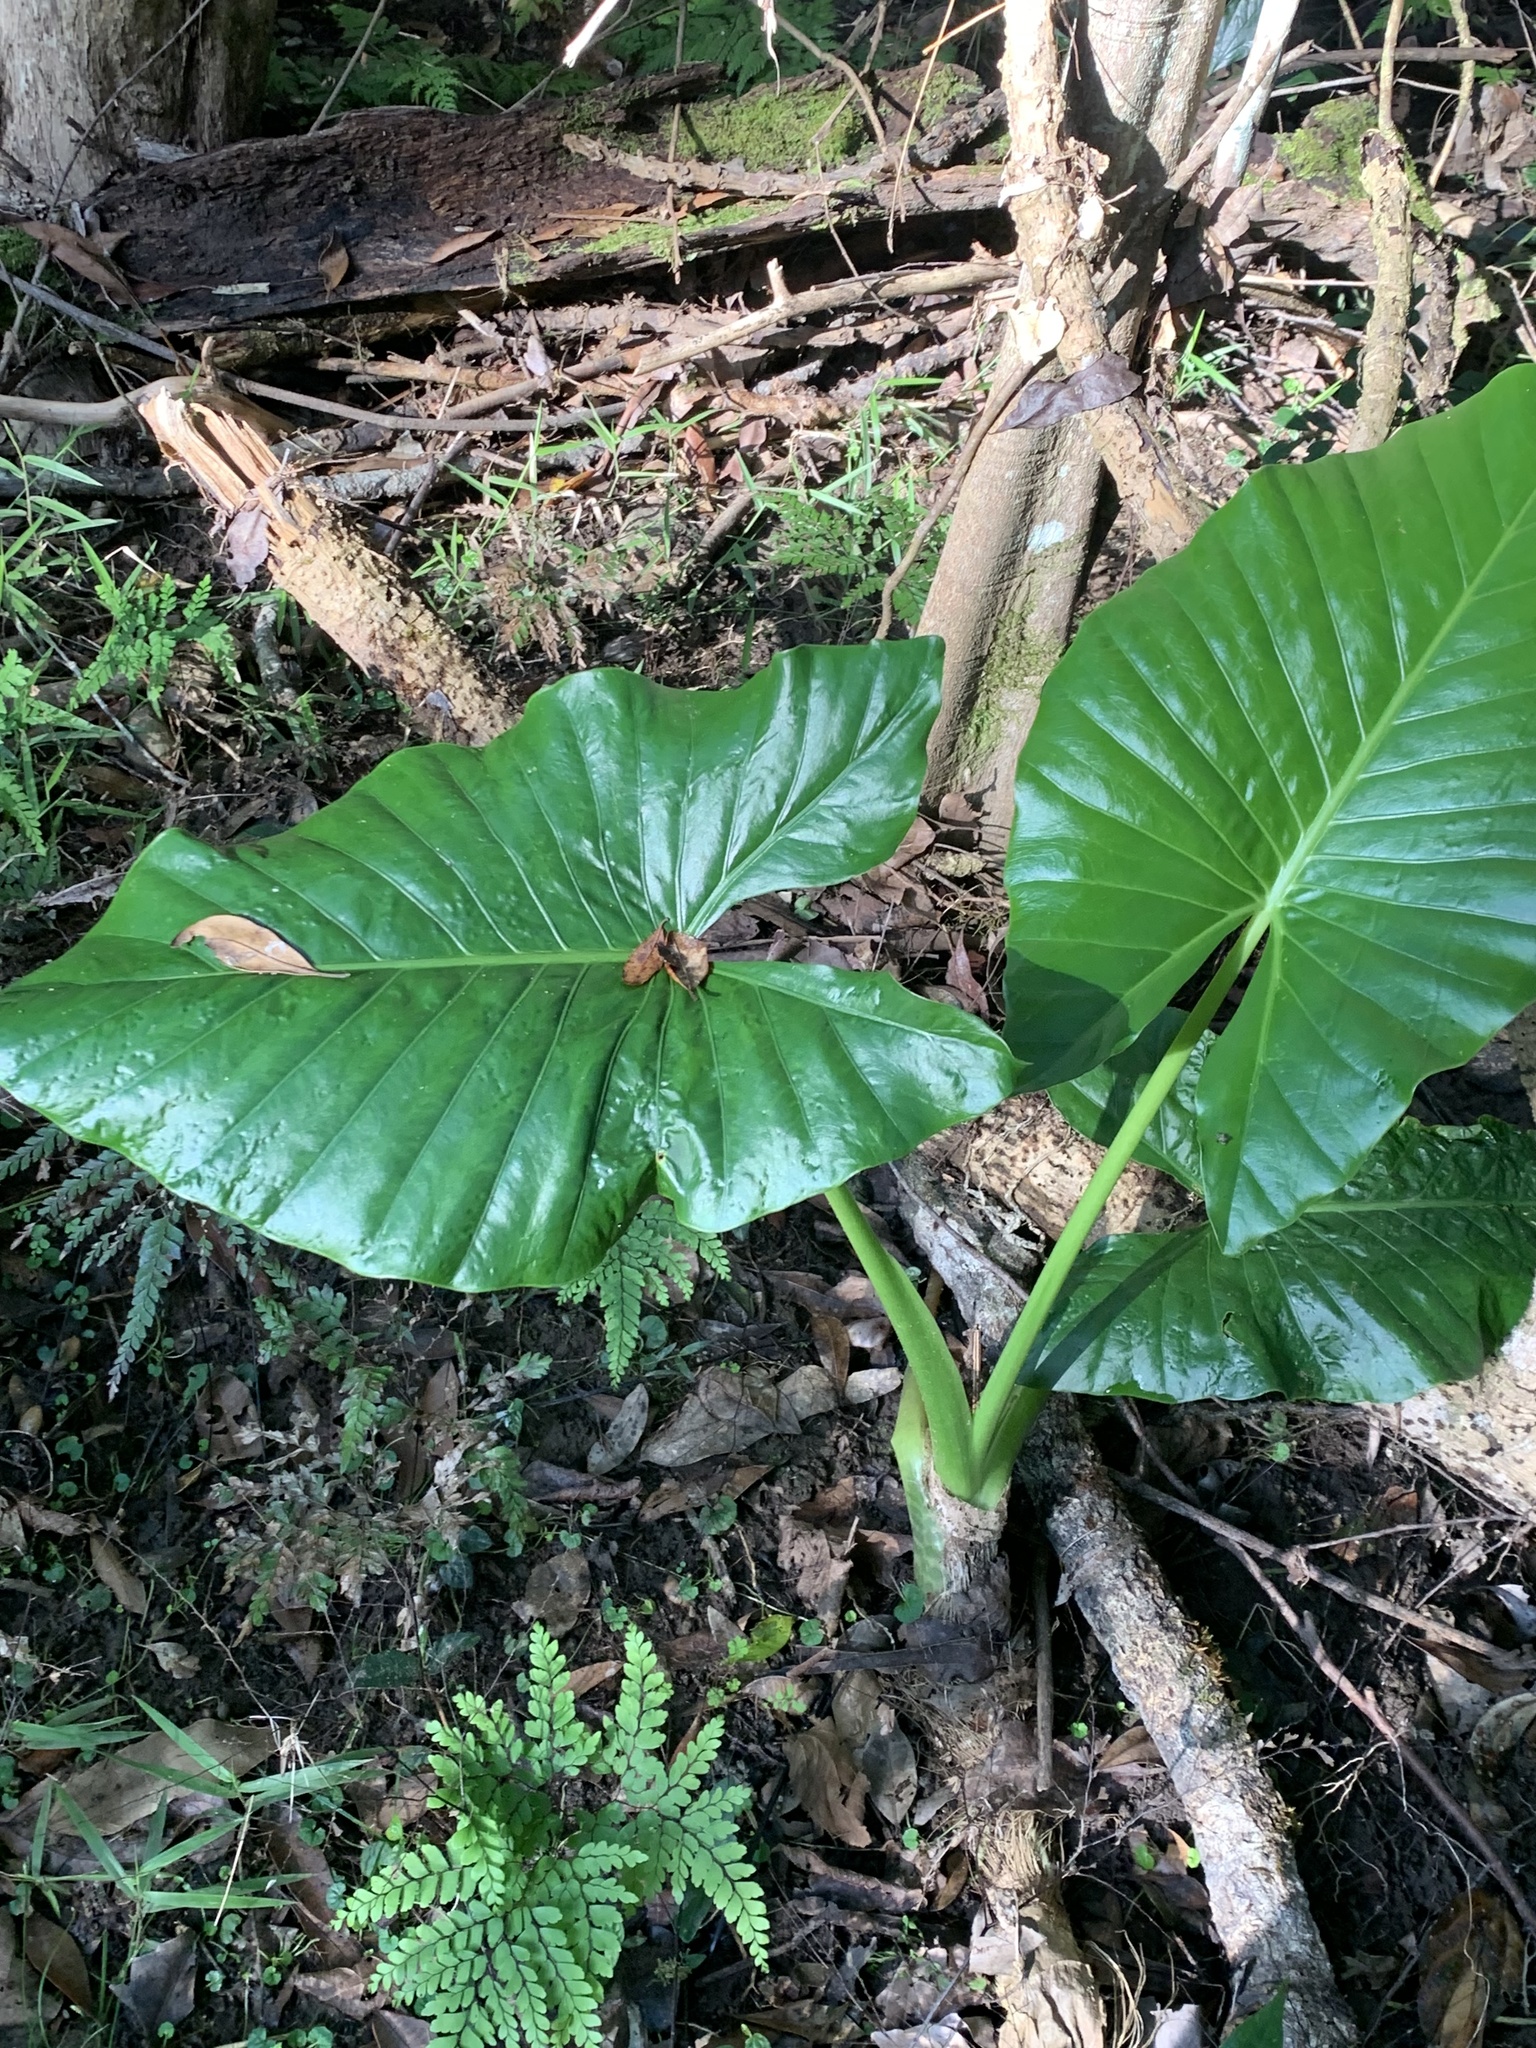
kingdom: Plantae
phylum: Tracheophyta
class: Liliopsida
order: Alismatales
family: Araceae
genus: Alocasia
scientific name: Alocasia brisbanensis
